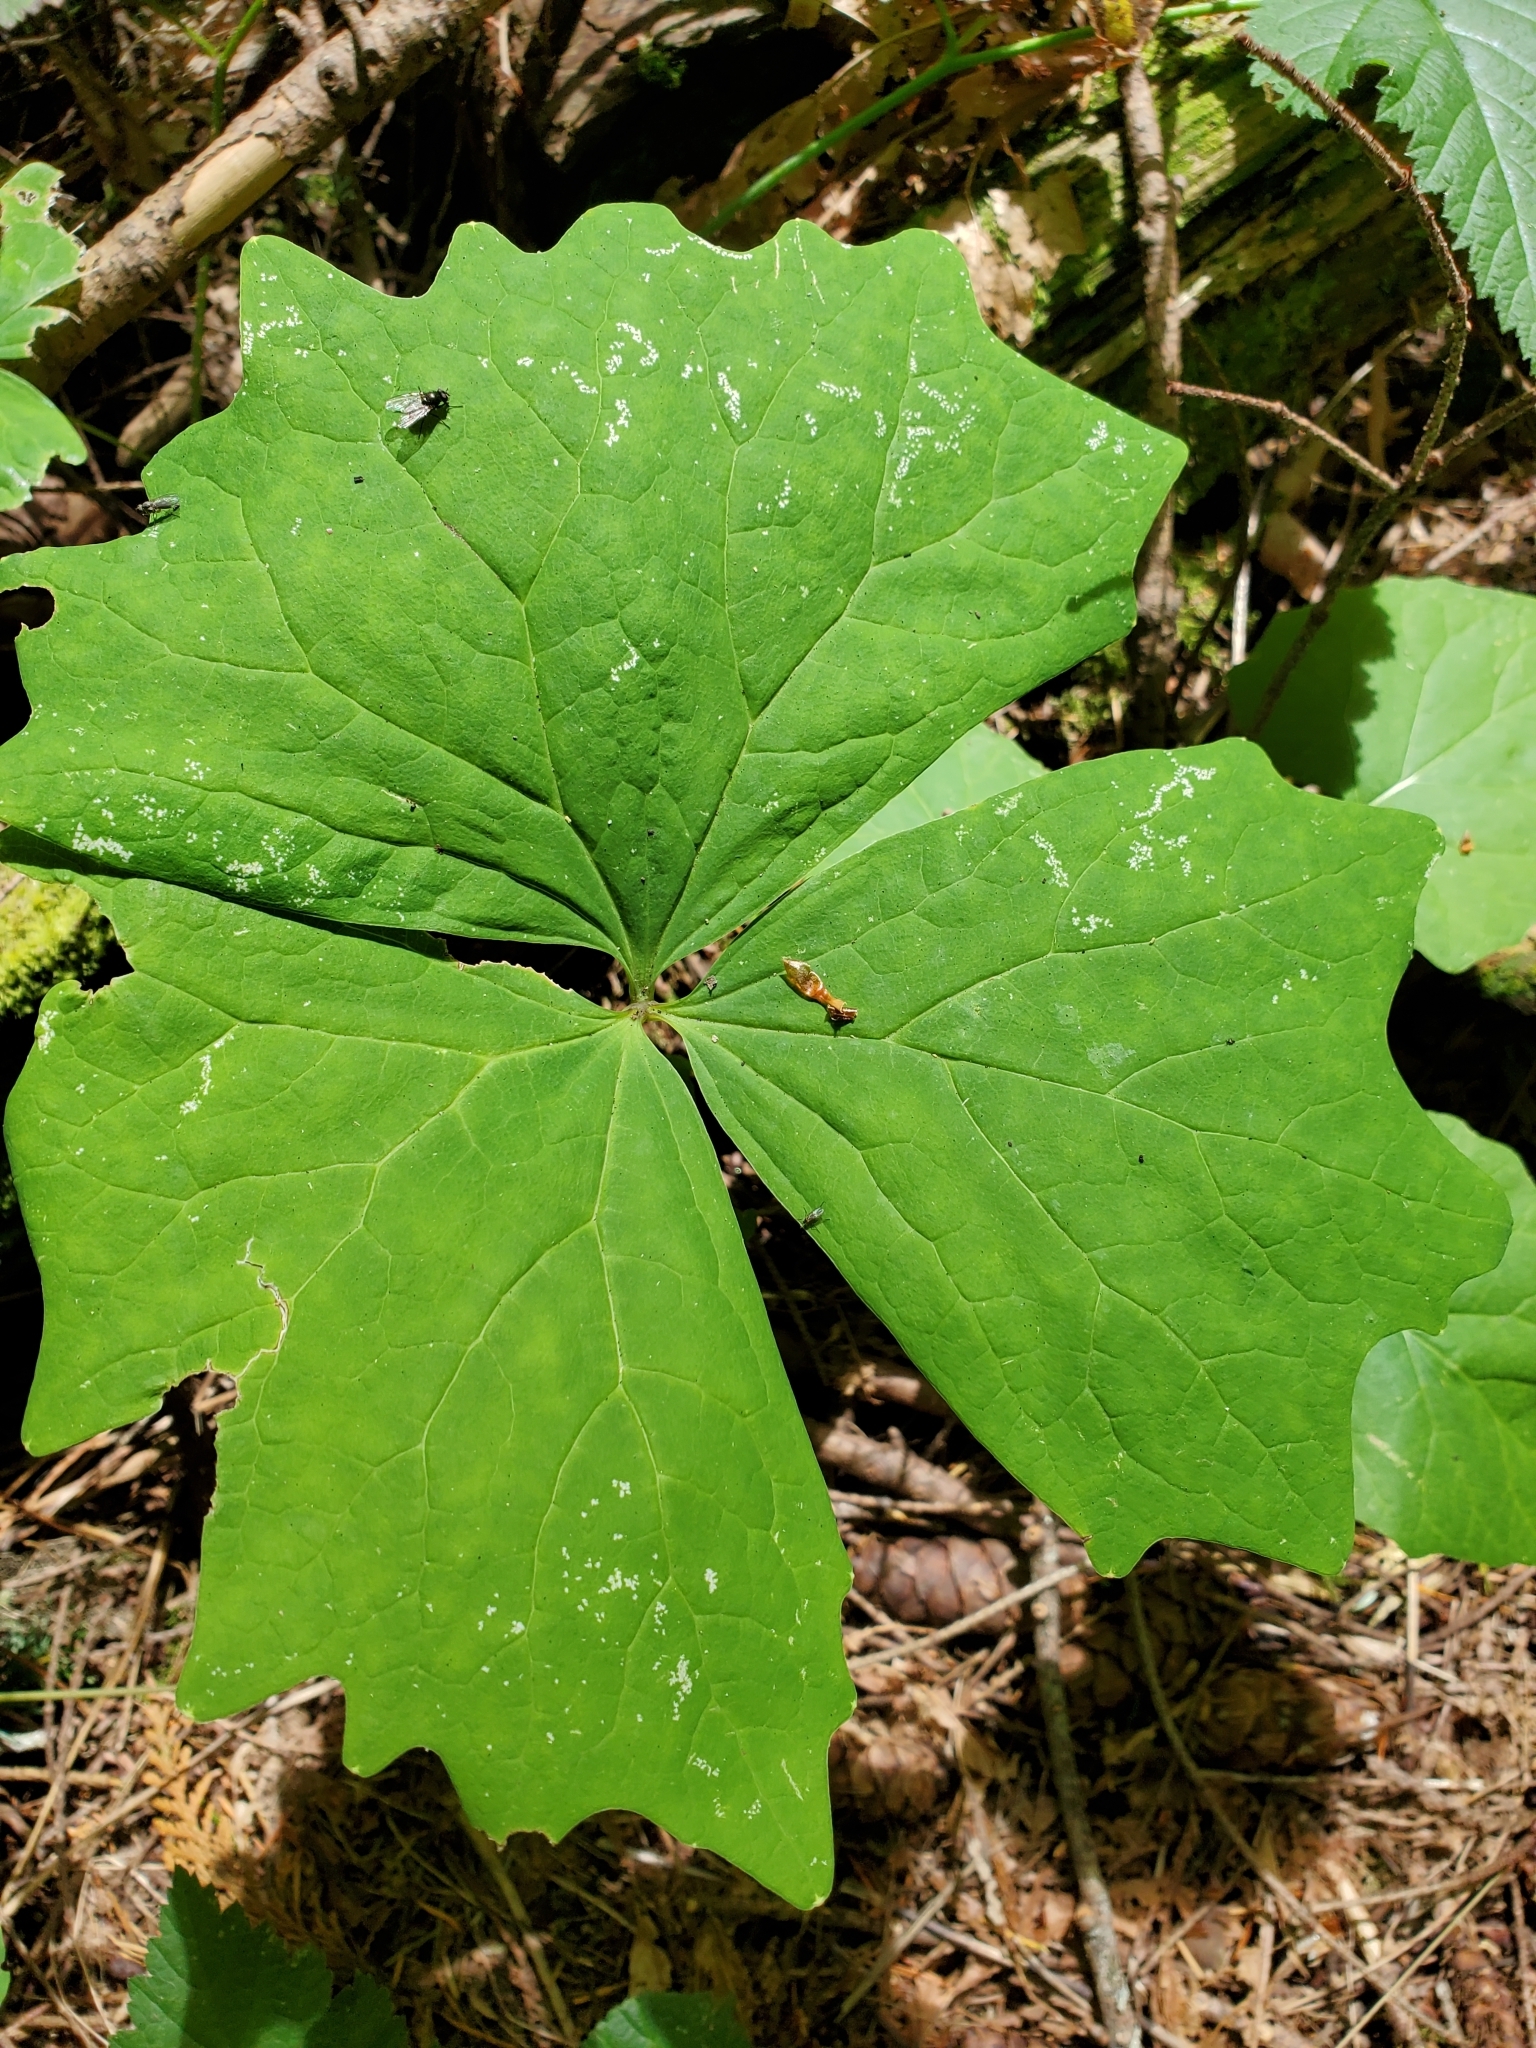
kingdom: Plantae
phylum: Tracheophyta
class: Magnoliopsida
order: Ranunculales
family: Berberidaceae
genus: Achlys
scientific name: Achlys triphylla
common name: Vanilla-leaf
